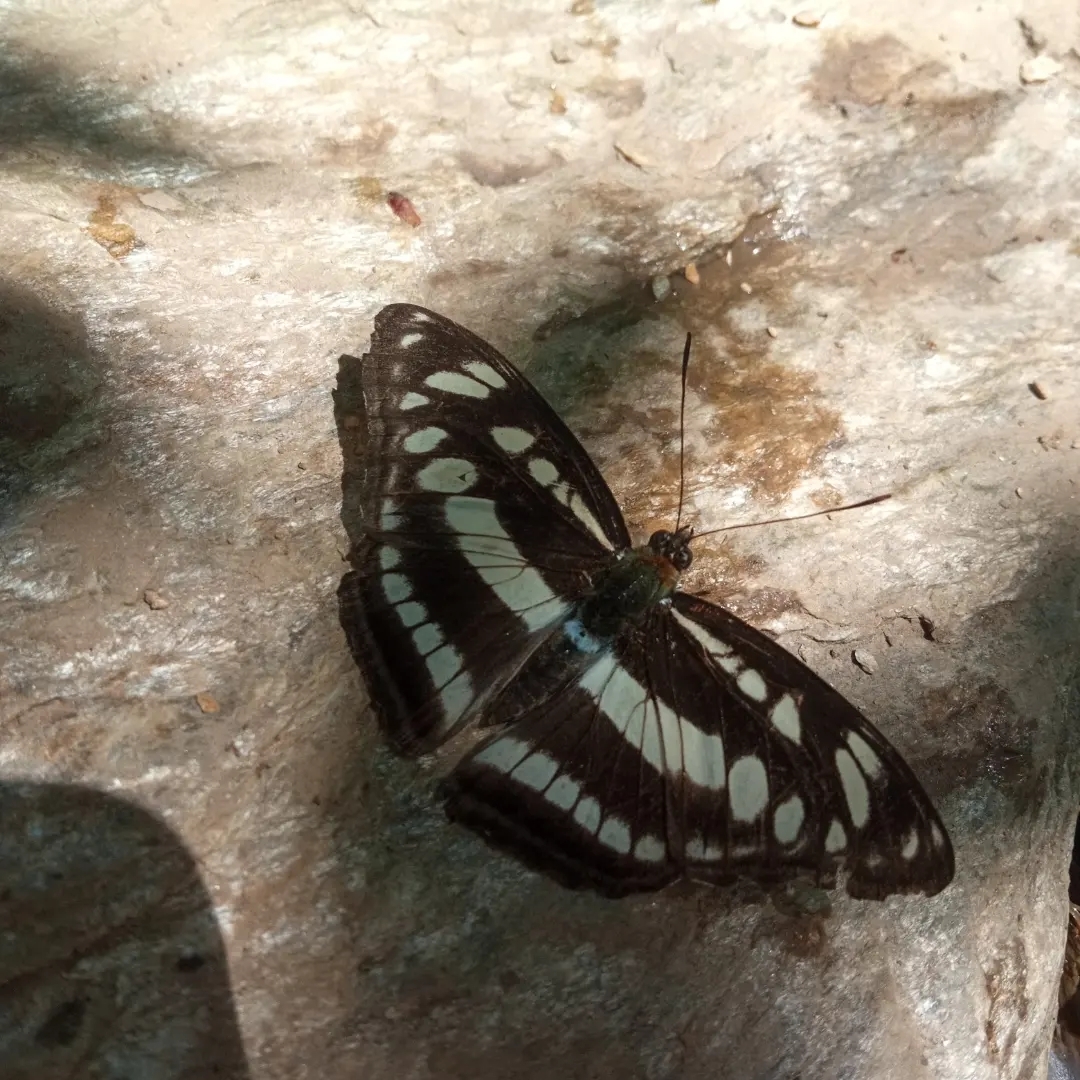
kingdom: Animalia
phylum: Arthropoda
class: Insecta
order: Lepidoptera
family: Nymphalidae
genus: Parathyma
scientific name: Parathyma opalina
